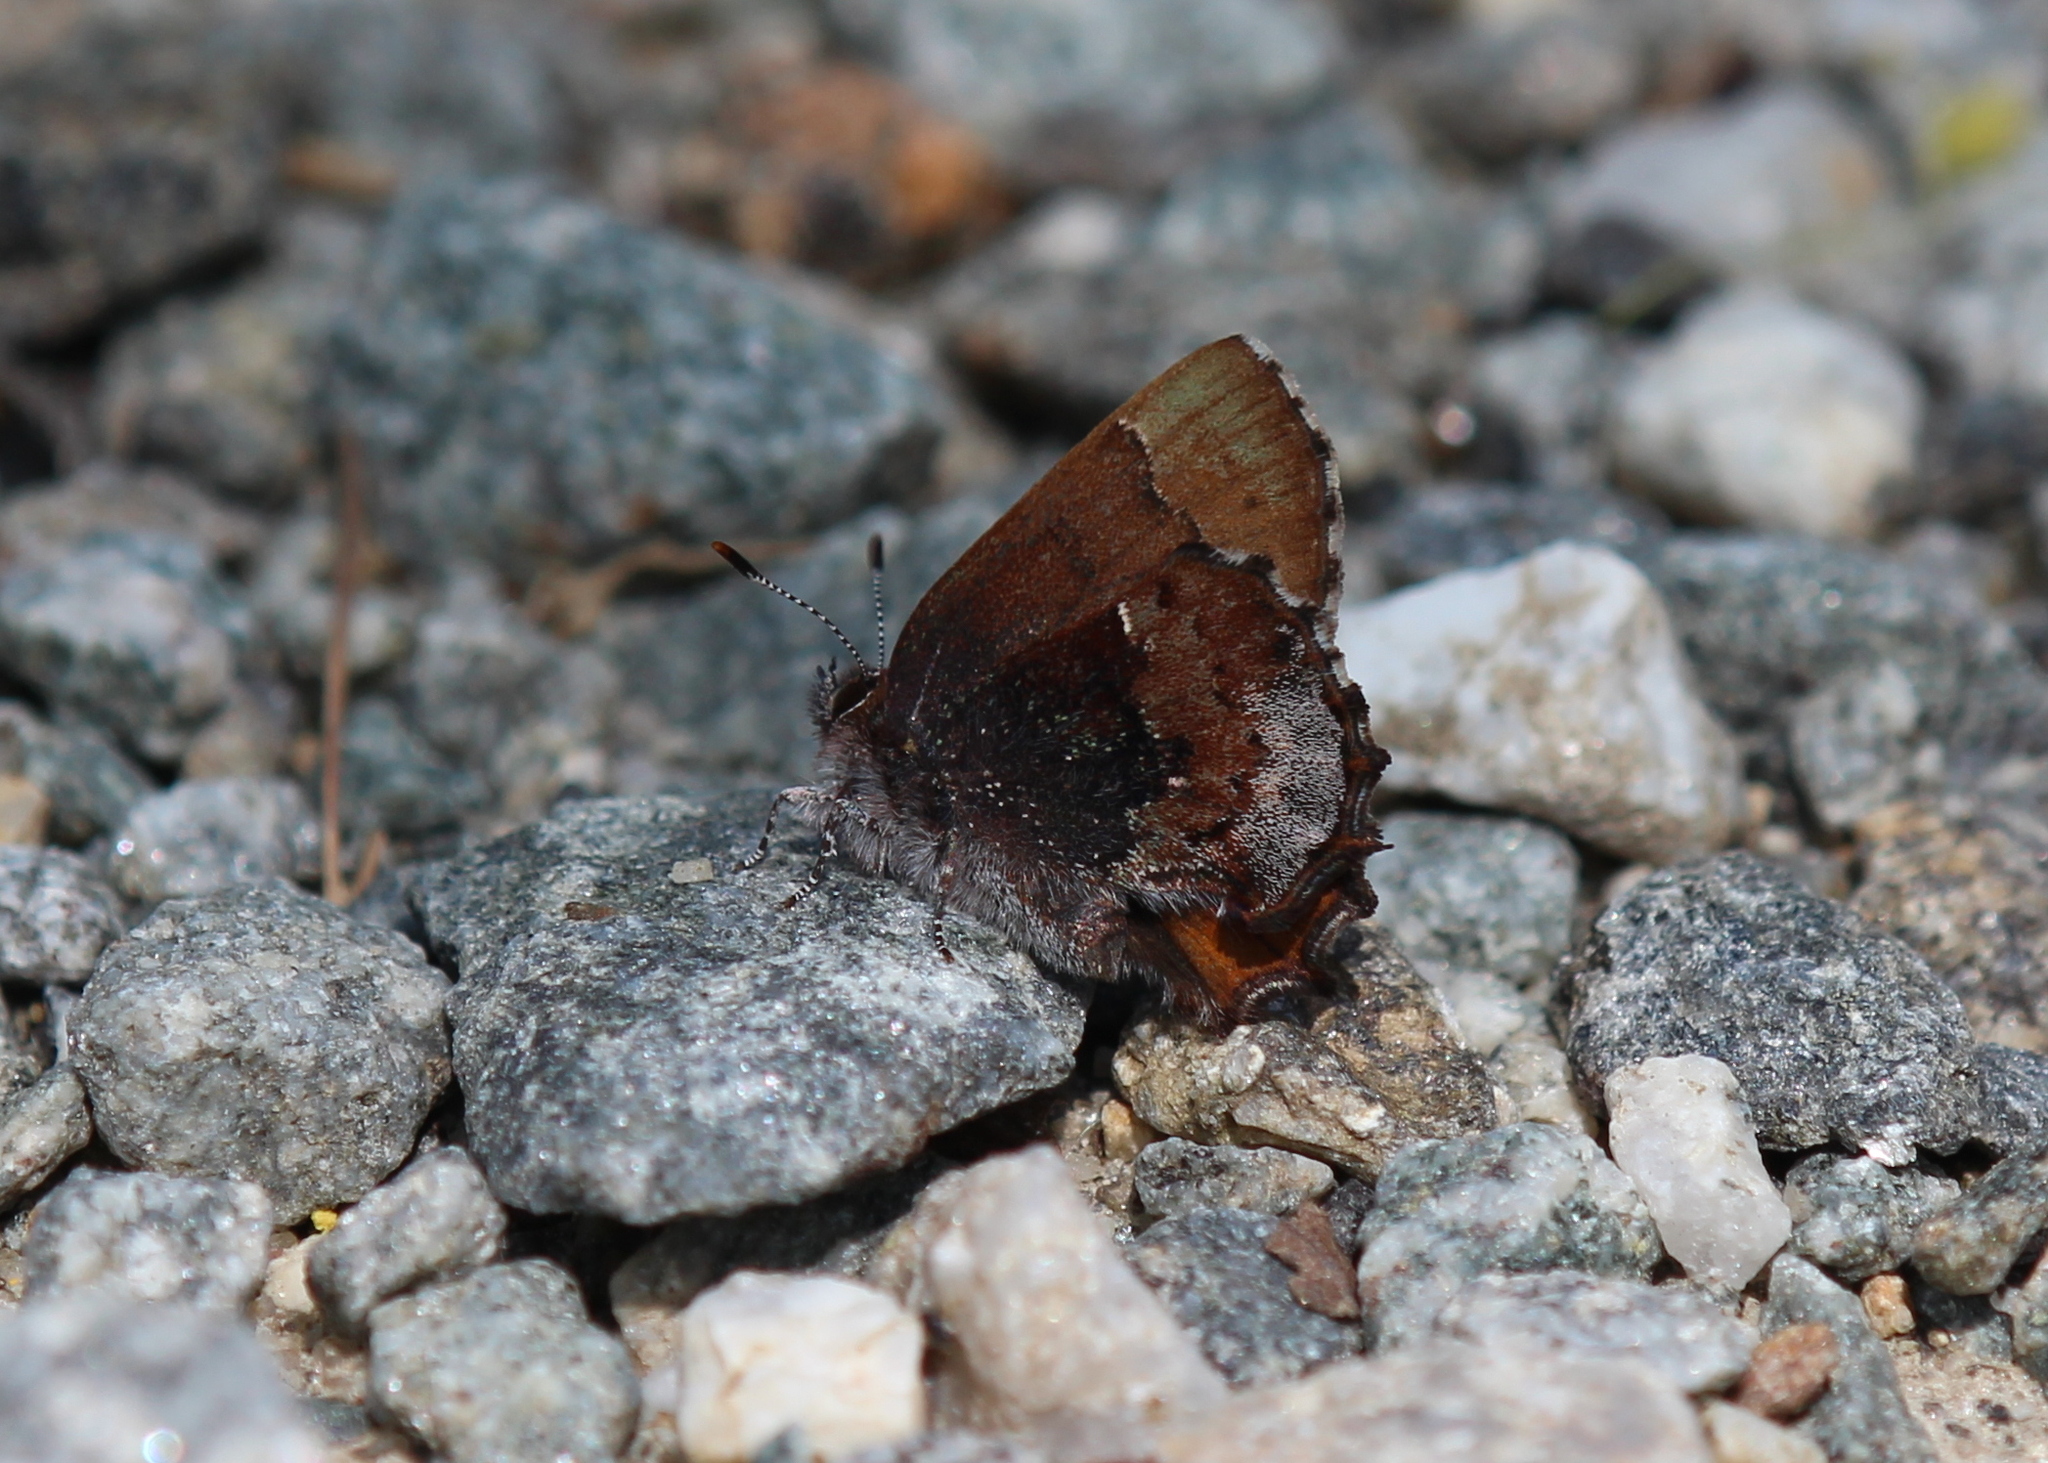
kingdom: Animalia
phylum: Arthropoda
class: Insecta
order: Lepidoptera
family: Lycaenidae
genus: Incisalia
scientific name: Incisalia henrici
